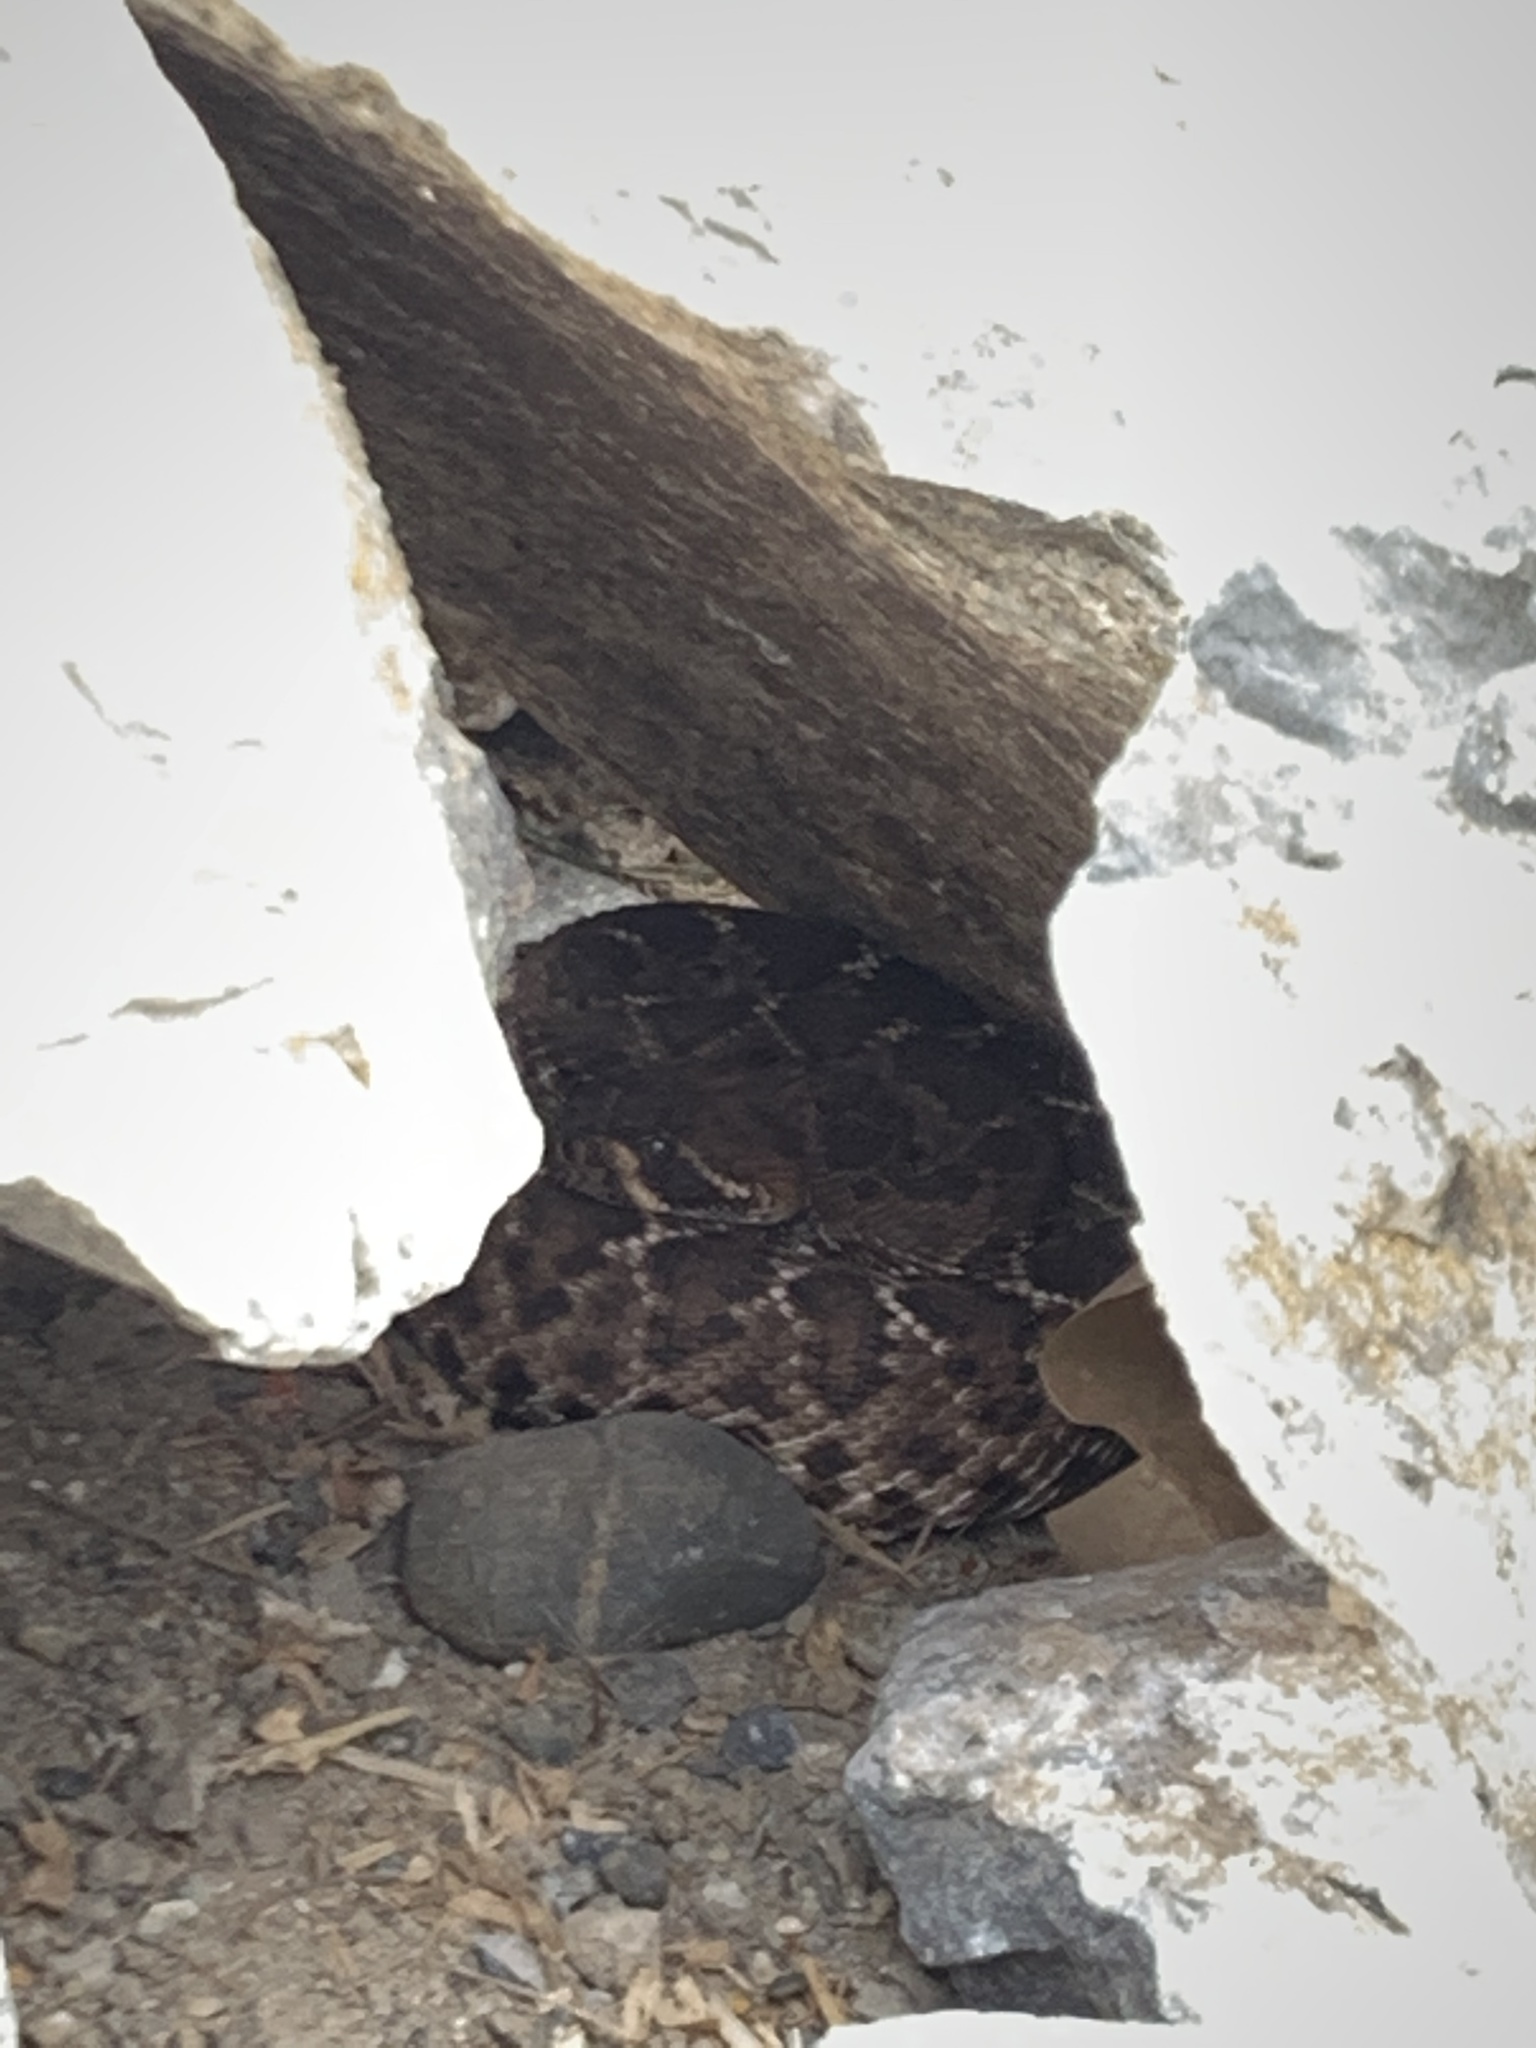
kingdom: Animalia
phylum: Chordata
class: Squamata
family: Viperidae
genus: Crotalus
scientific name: Crotalus ruber
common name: Red diamond rattlesnake
